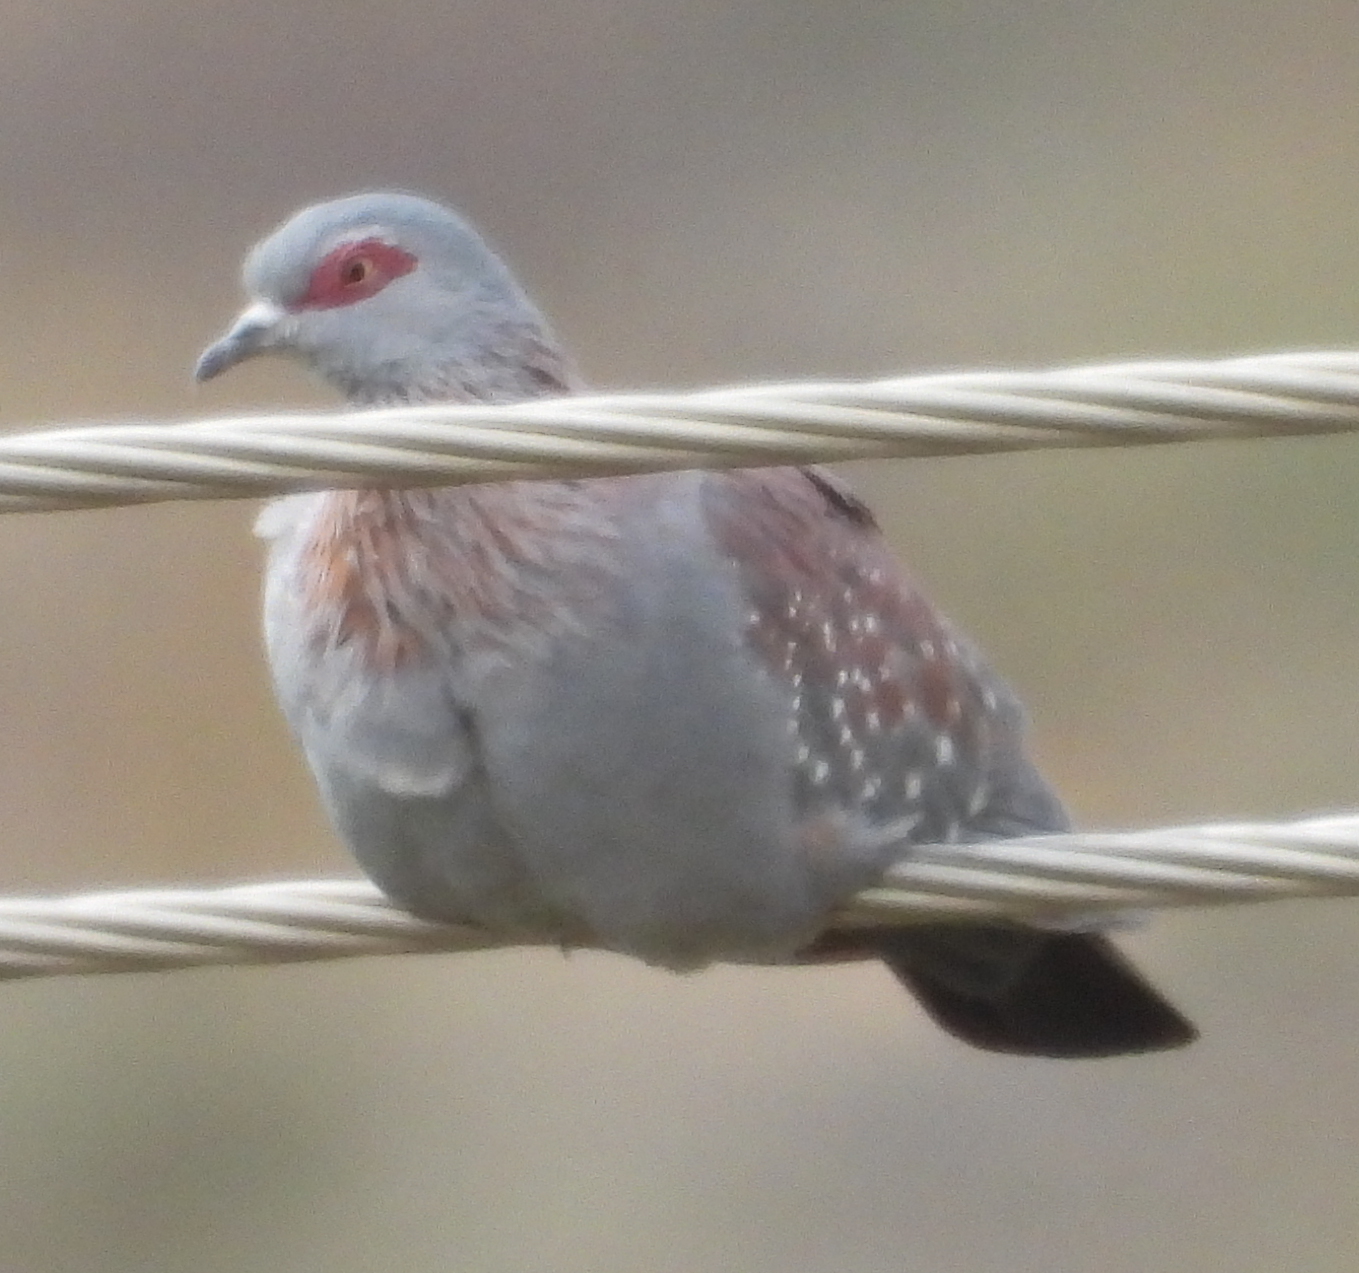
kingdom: Animalia
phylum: Chordata
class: Aves
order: Columbiformes
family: Columbidae
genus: Columba
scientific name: Columba guinea
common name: Speckled pigeon
